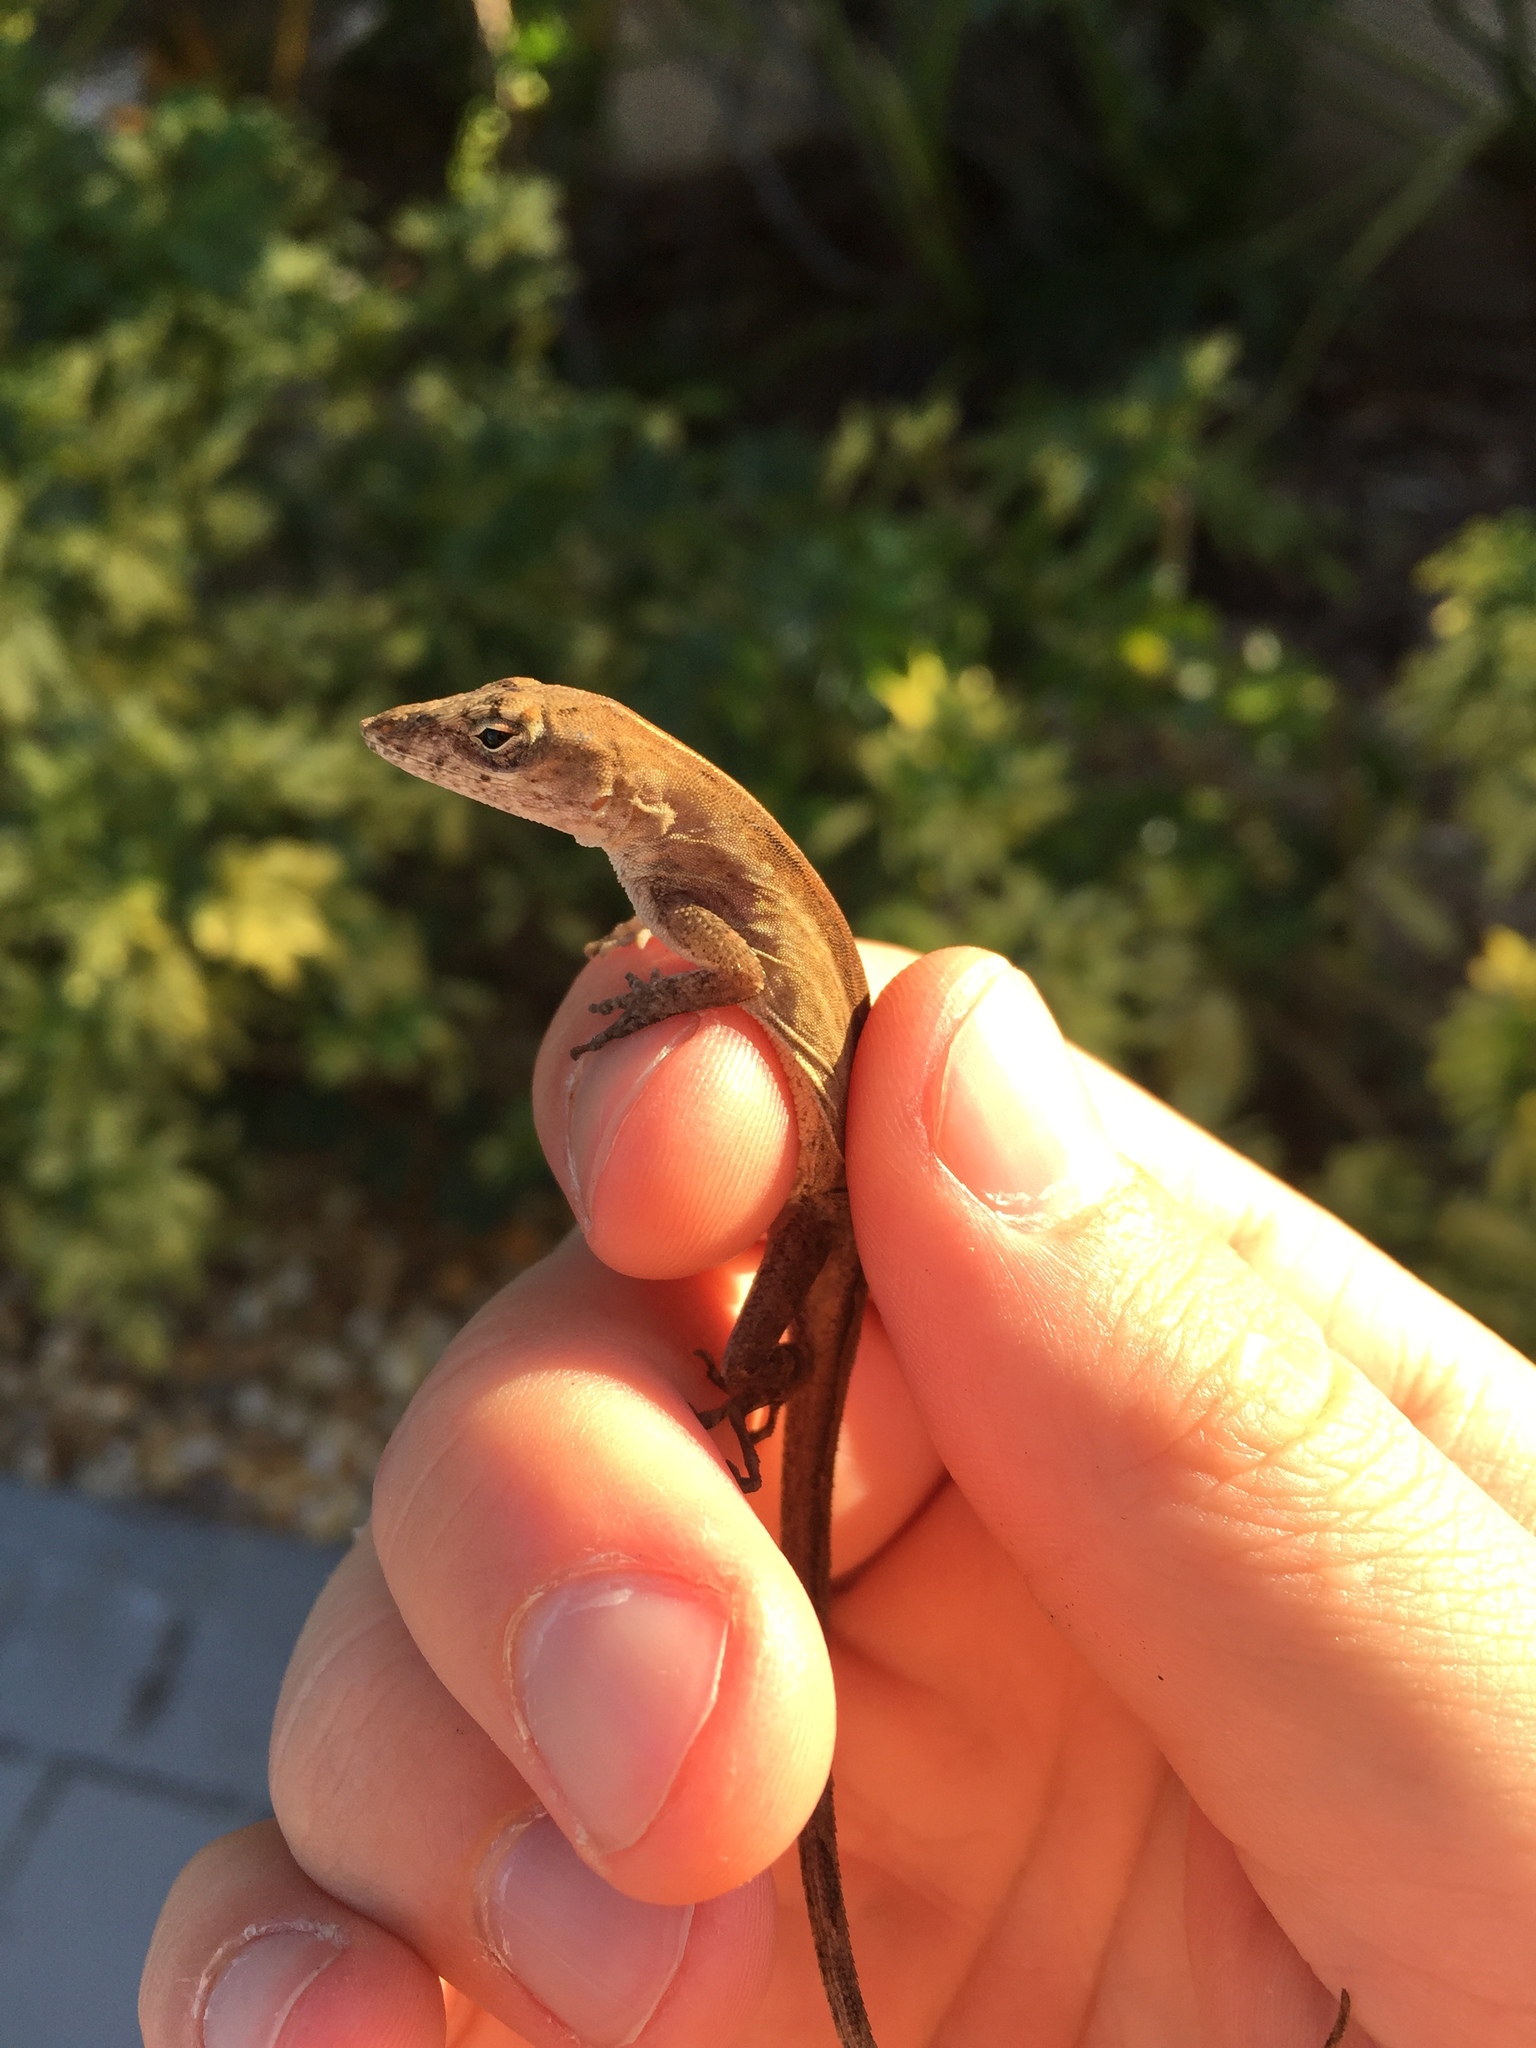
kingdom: Animalia
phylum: Chordata
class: Squamata
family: Dactyloidae
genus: Anolis
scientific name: Anolis sagrei
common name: Brown anole
